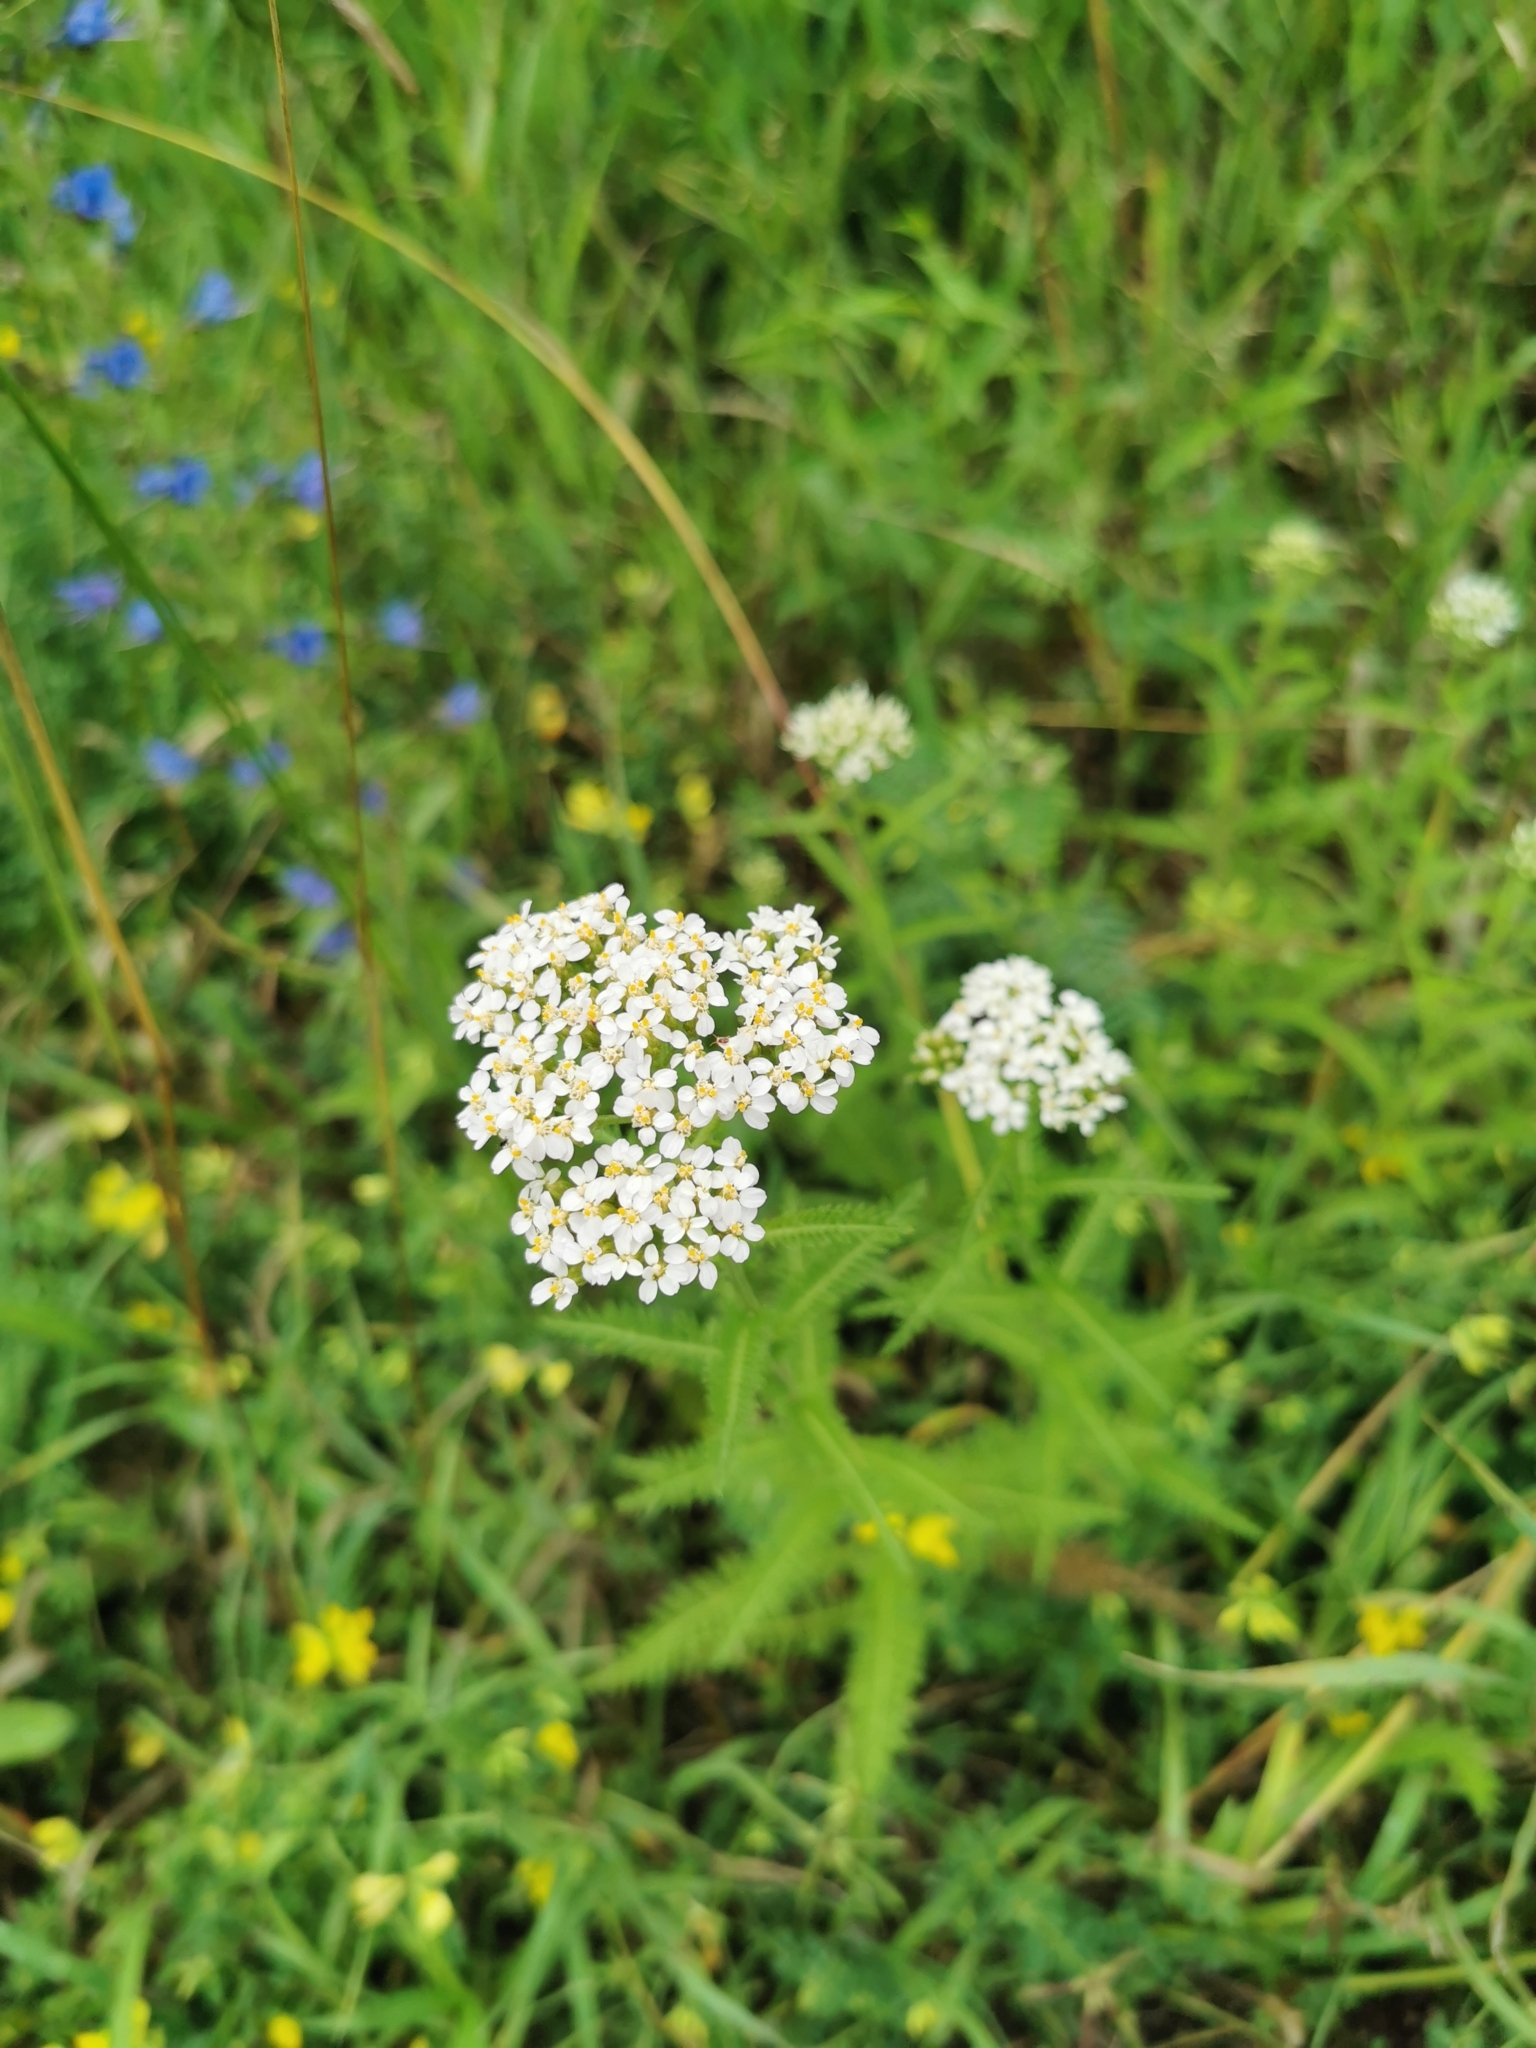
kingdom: Plantae
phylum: Tracheophyta
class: Magnoliopsida
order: Asterales
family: Asteraceae
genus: Achillea
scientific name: Achillea millefolium
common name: Yarrow
